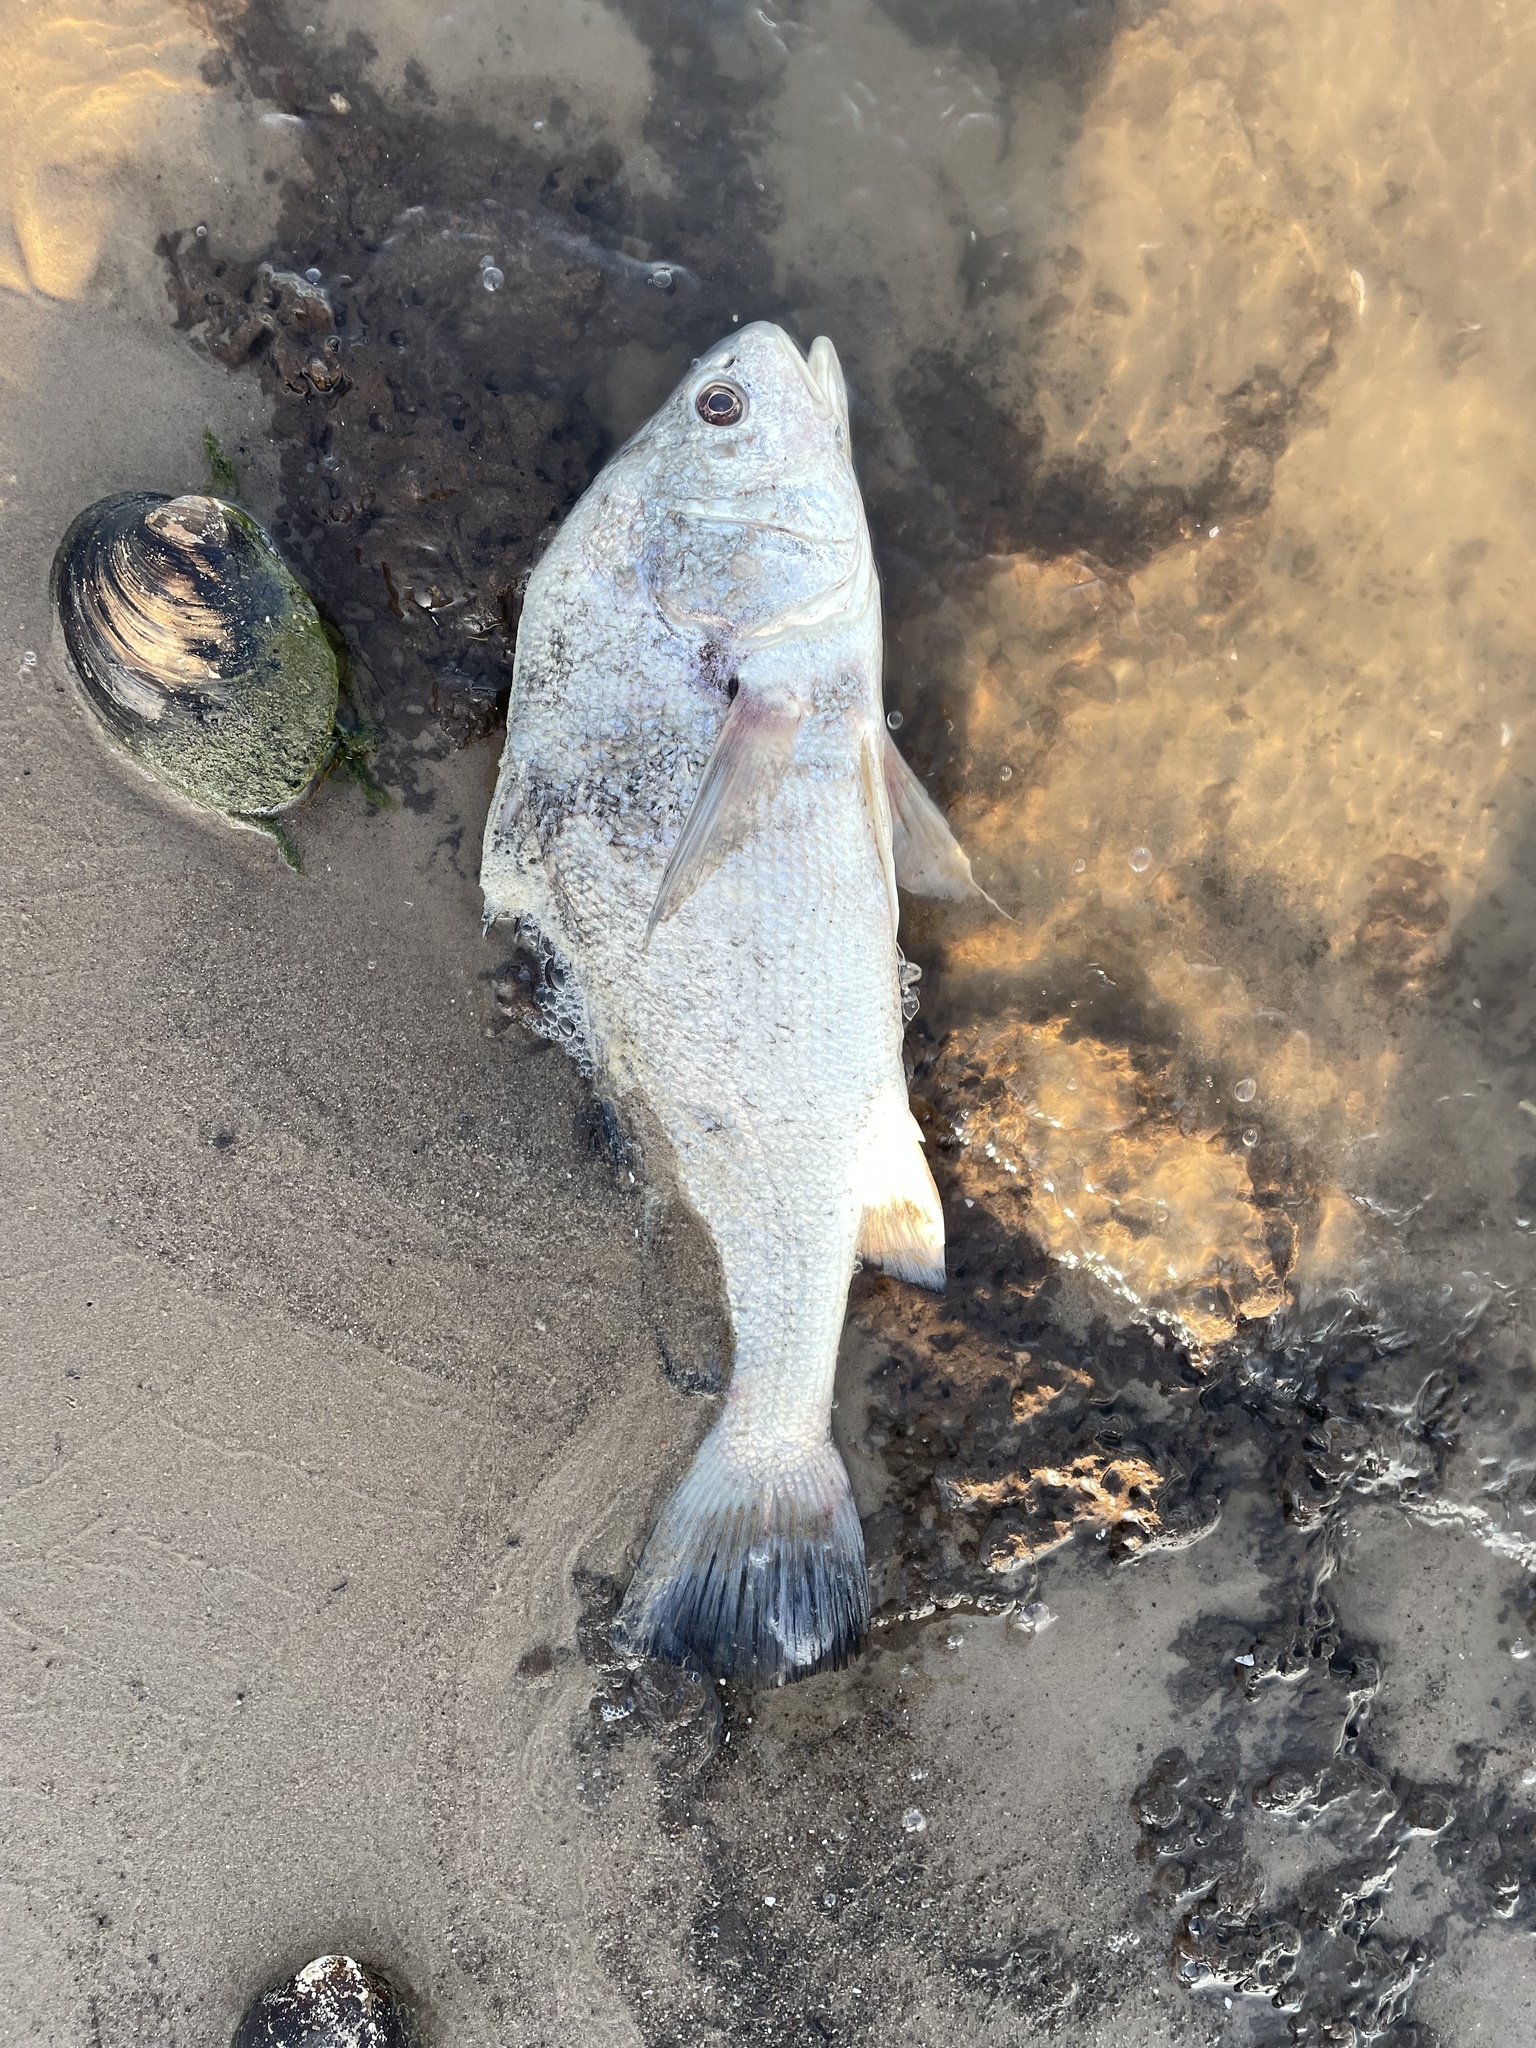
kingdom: Animalia
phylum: Chordata
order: Perciformes
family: Sciaenidae
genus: Aplodinotus
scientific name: Aplodinotus grunniens
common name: Freshwater drum
